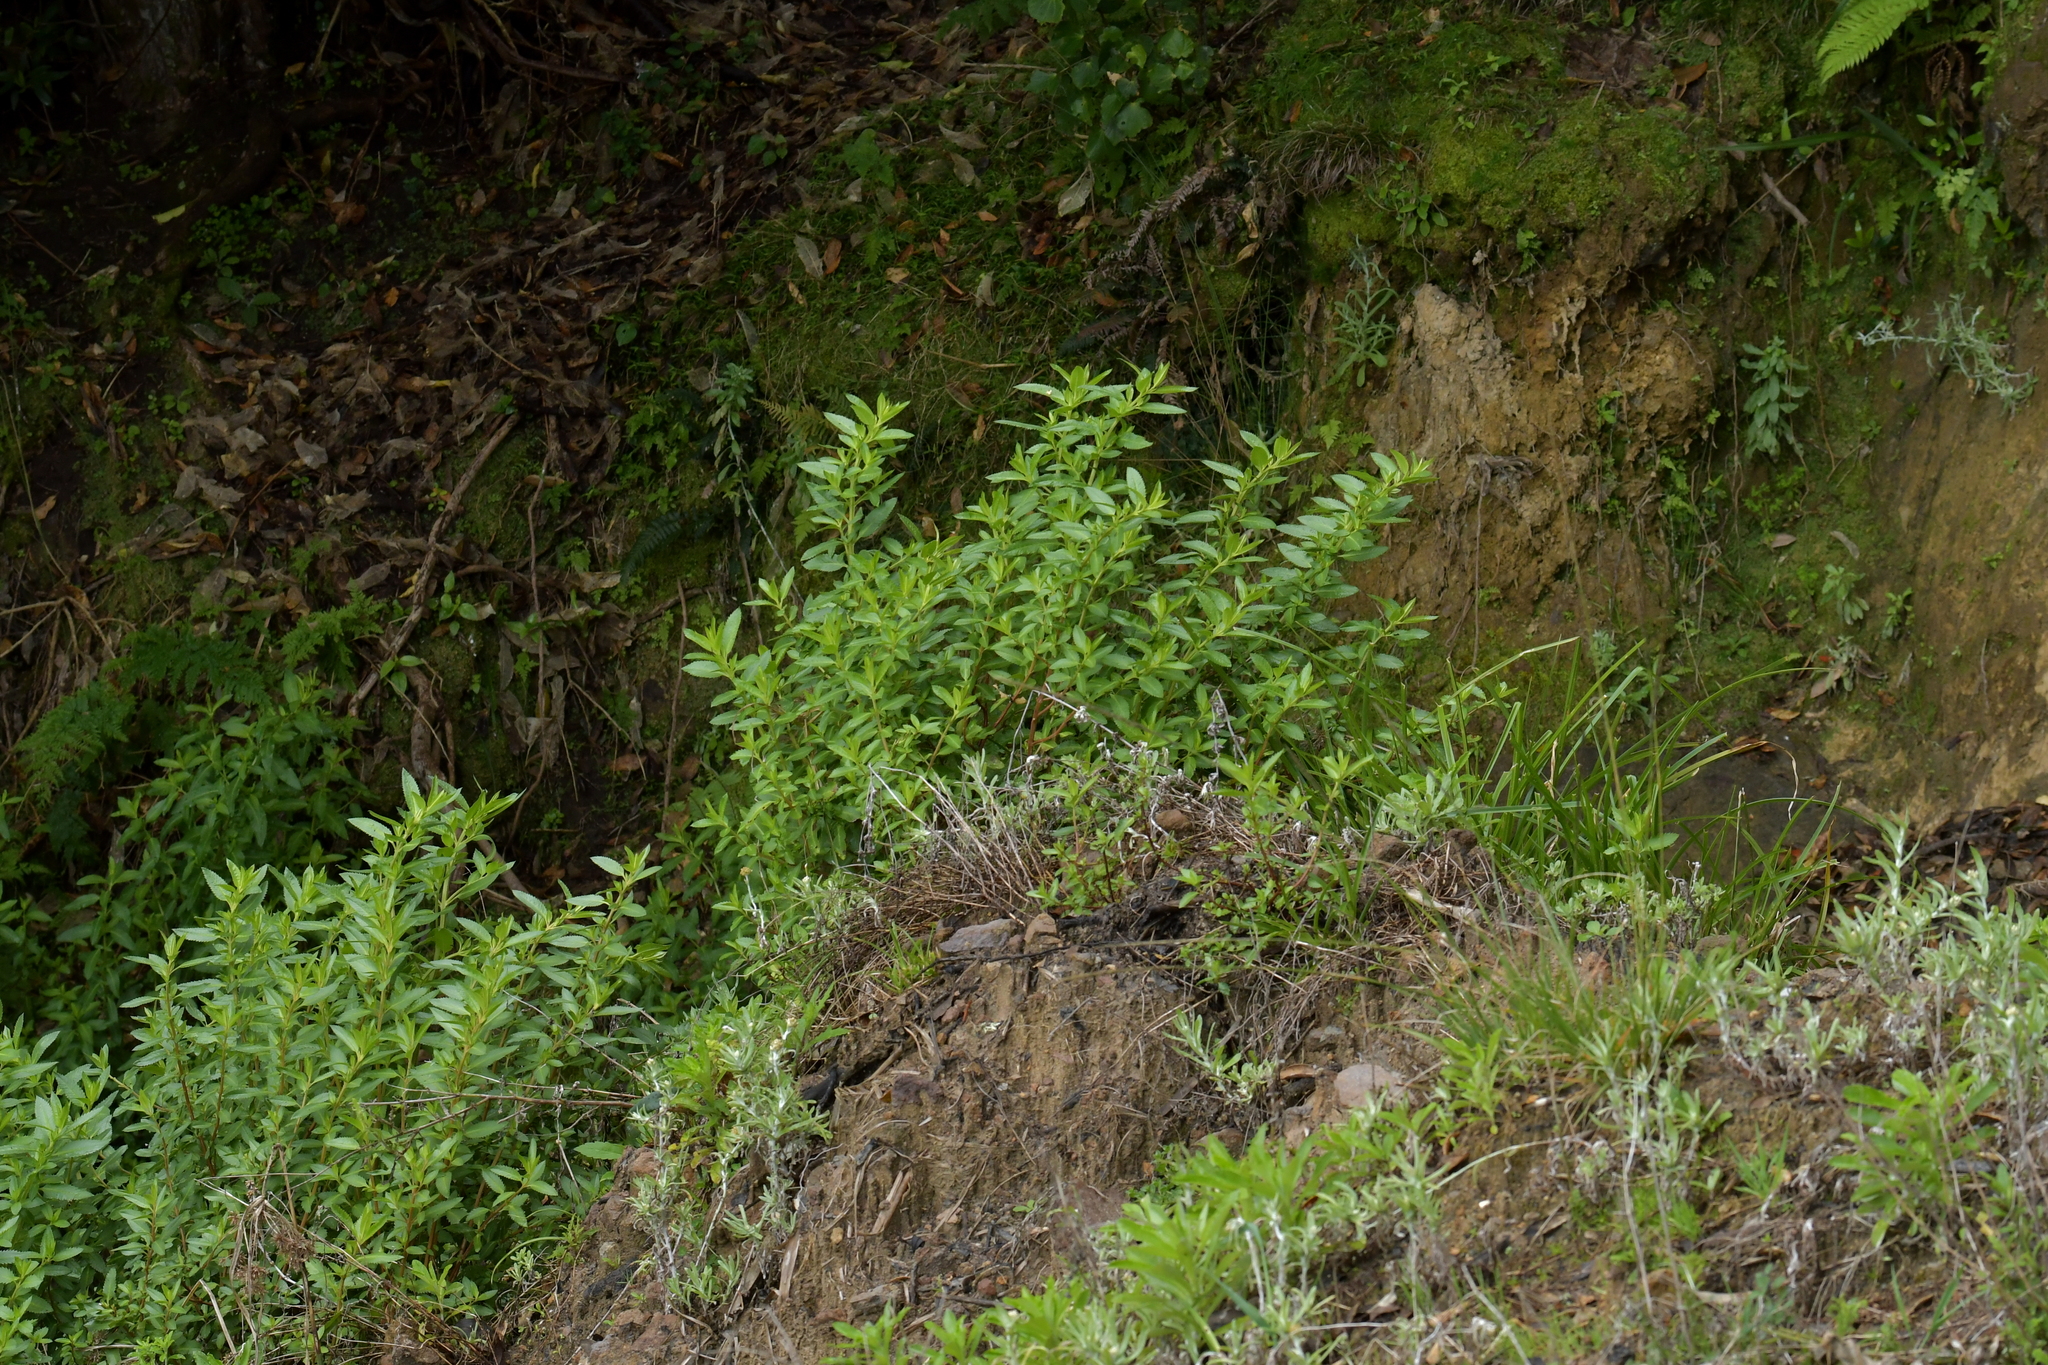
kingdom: Plantae
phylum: Tracheophyta
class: Magnoliopsida
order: Saxifragales
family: Haloragaceae
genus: Haloragis
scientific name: Haloragis erecta
